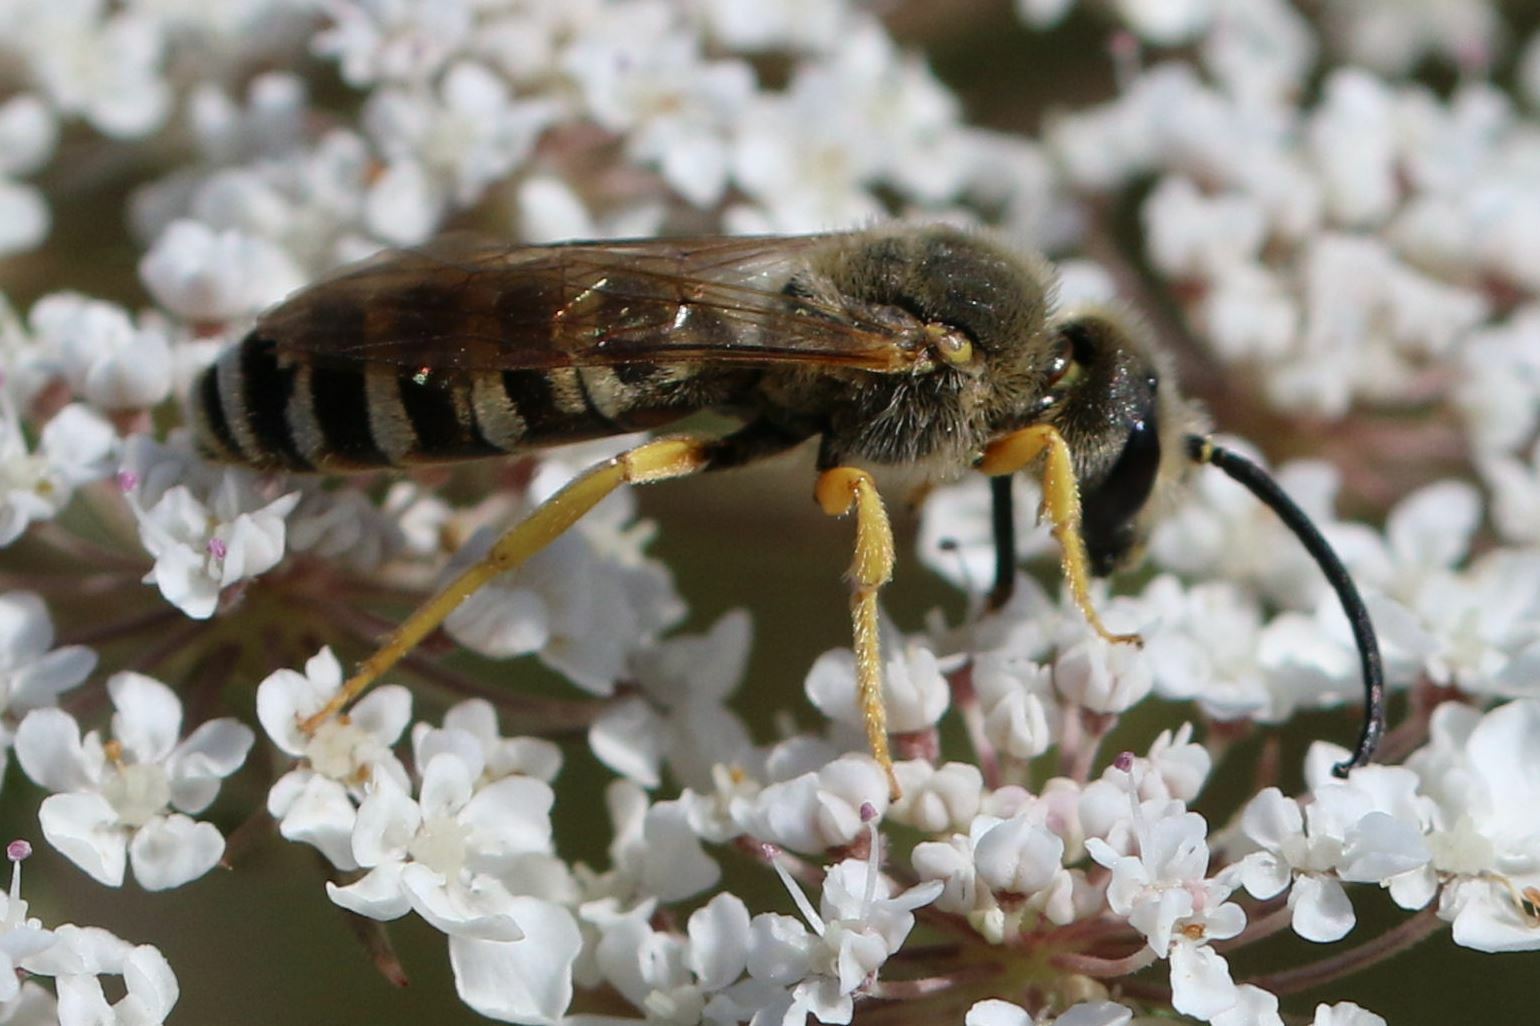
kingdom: Animalia
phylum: Arthropoda
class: Insecta
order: Hymenoptera
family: Halictidae
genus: Halictus
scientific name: Halictus scabiosae
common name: Great banded furrow bee
